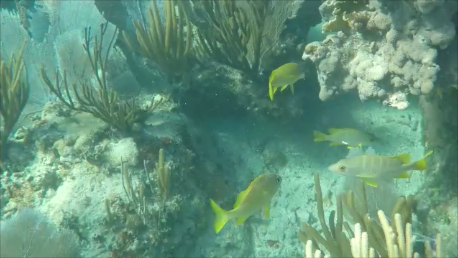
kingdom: Animalia
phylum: Chordata
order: Perciformes
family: Lutjanidae
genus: Lutjanus
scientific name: Lutjanus apodus
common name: Schoolmaster
